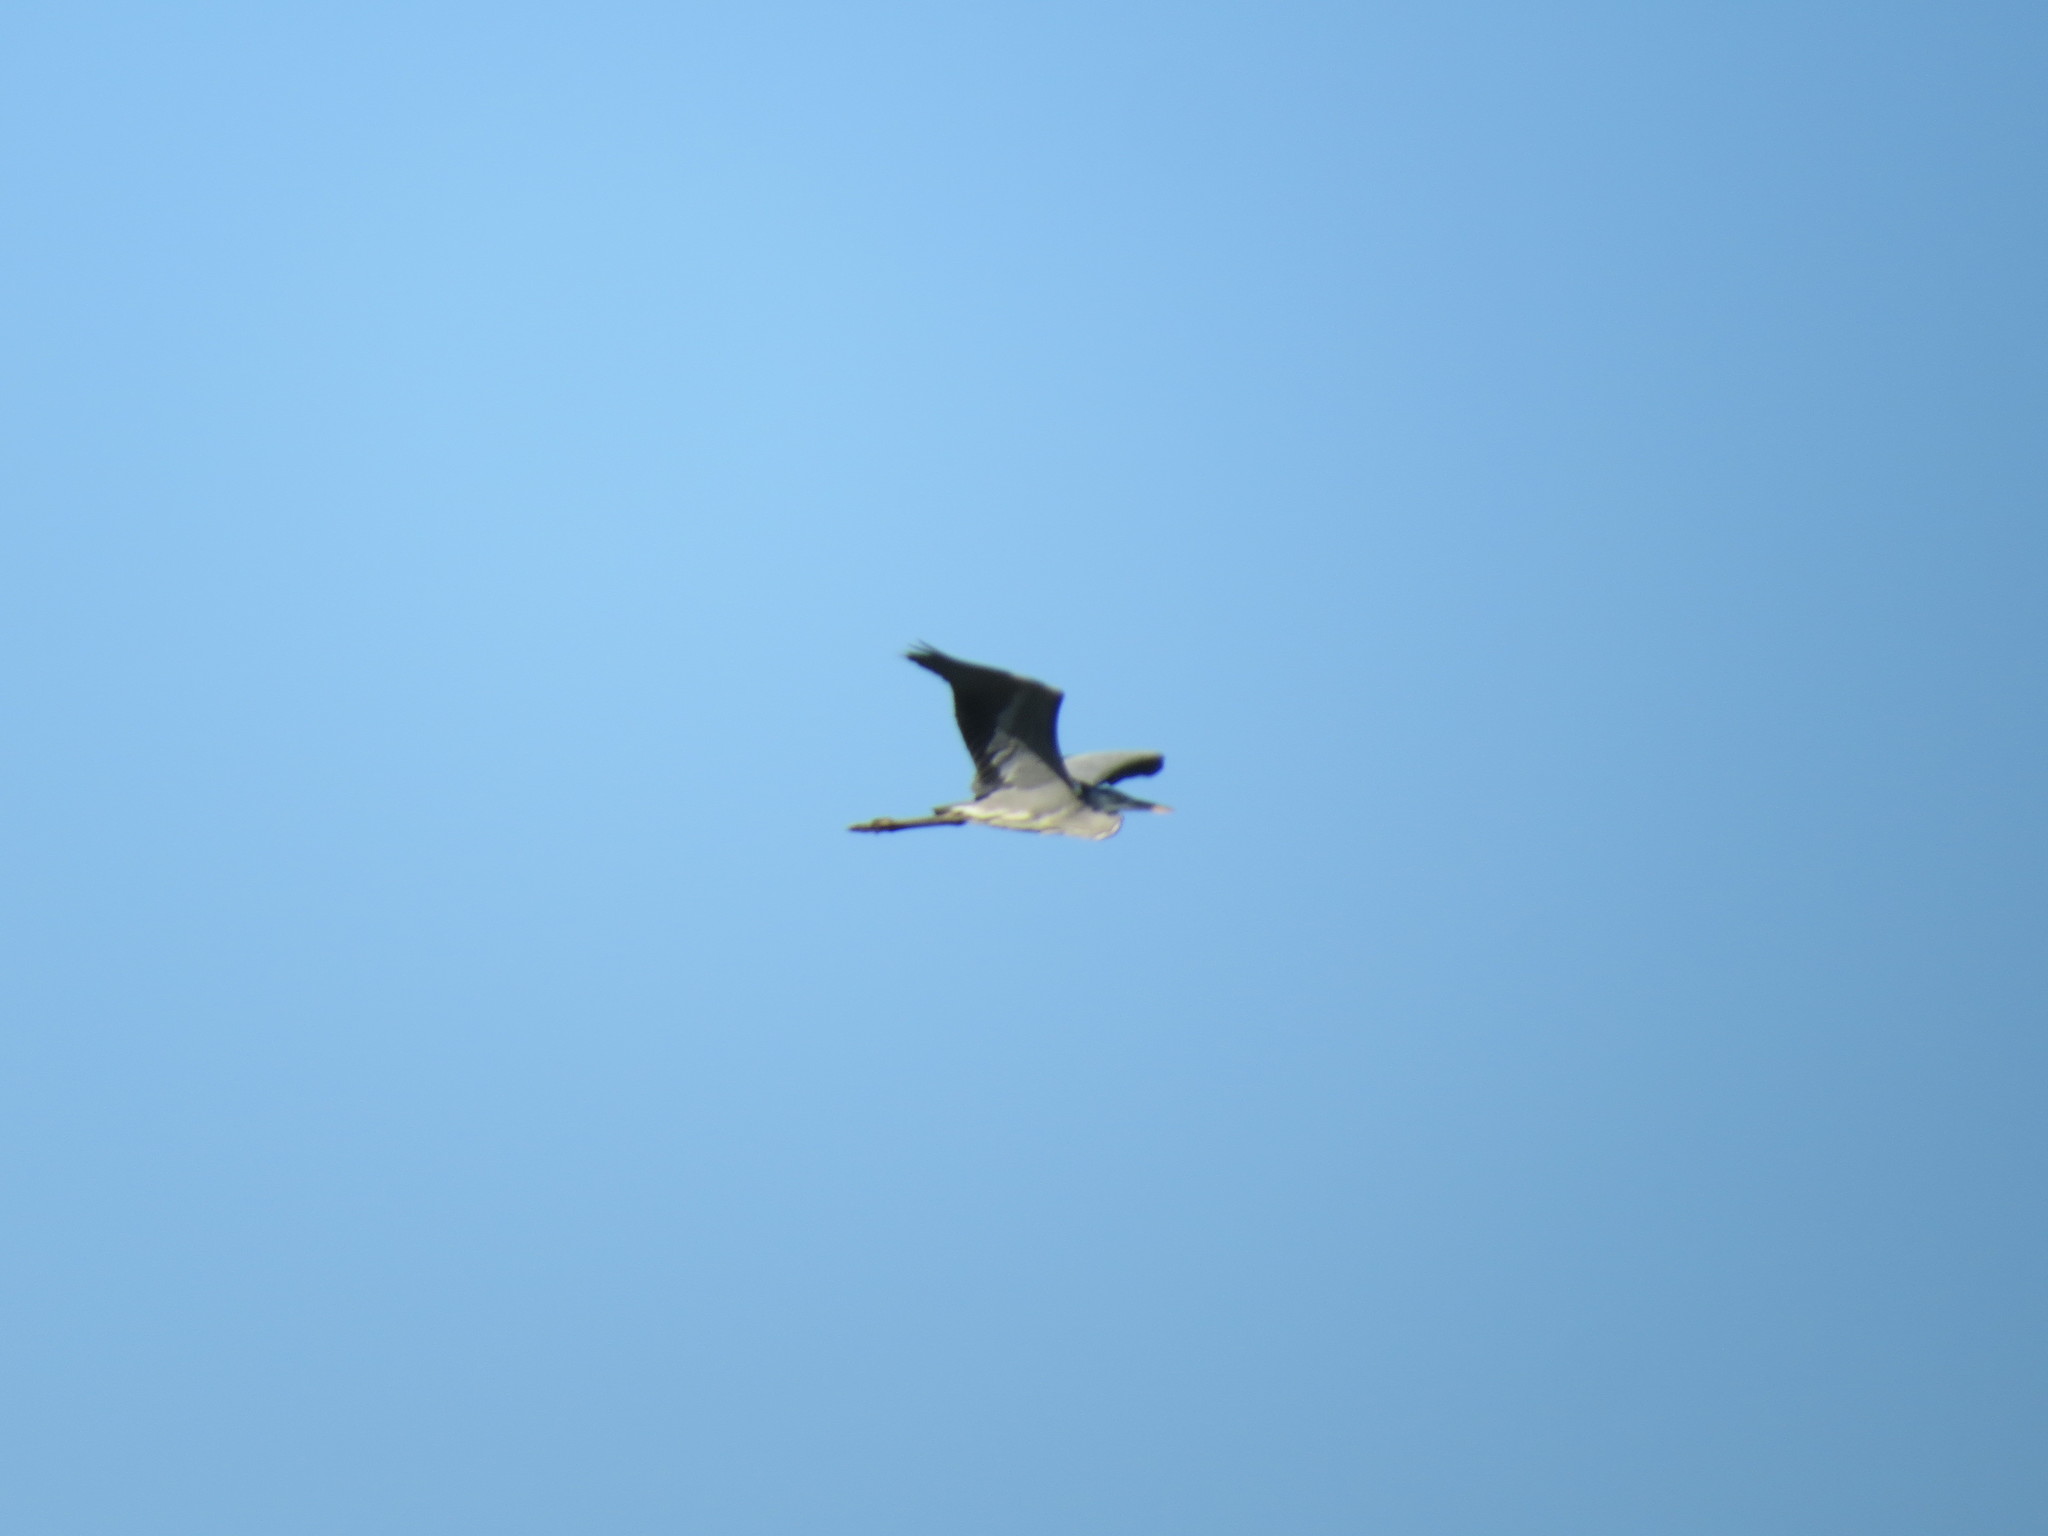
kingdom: Animalia
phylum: Chordata
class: Aves
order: Pelecaniformes
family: Ardeidae
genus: Ardea
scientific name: Ardea cinerea
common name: Grey heron
